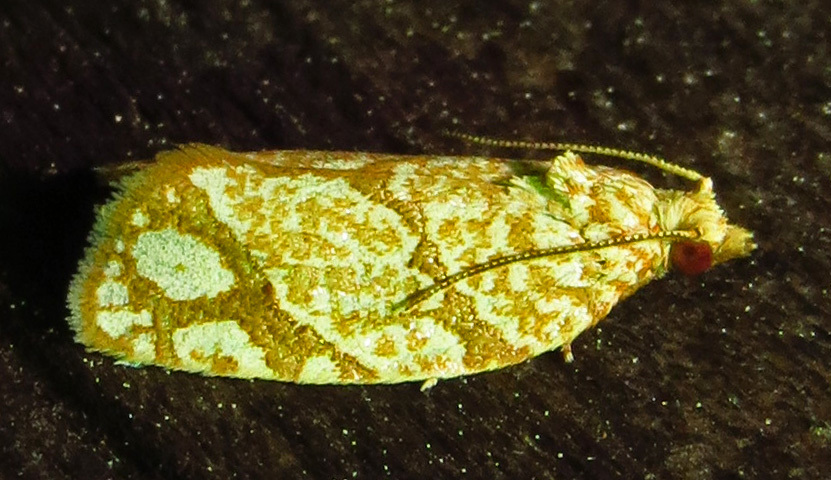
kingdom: Animalia
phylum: Arthropoda
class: Insecta
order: Lepidoptera
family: Tortricidae
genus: Argyrotaenia
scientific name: Argyrotaenia quercifoliana
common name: Yellow-winged oak leafroller moth
